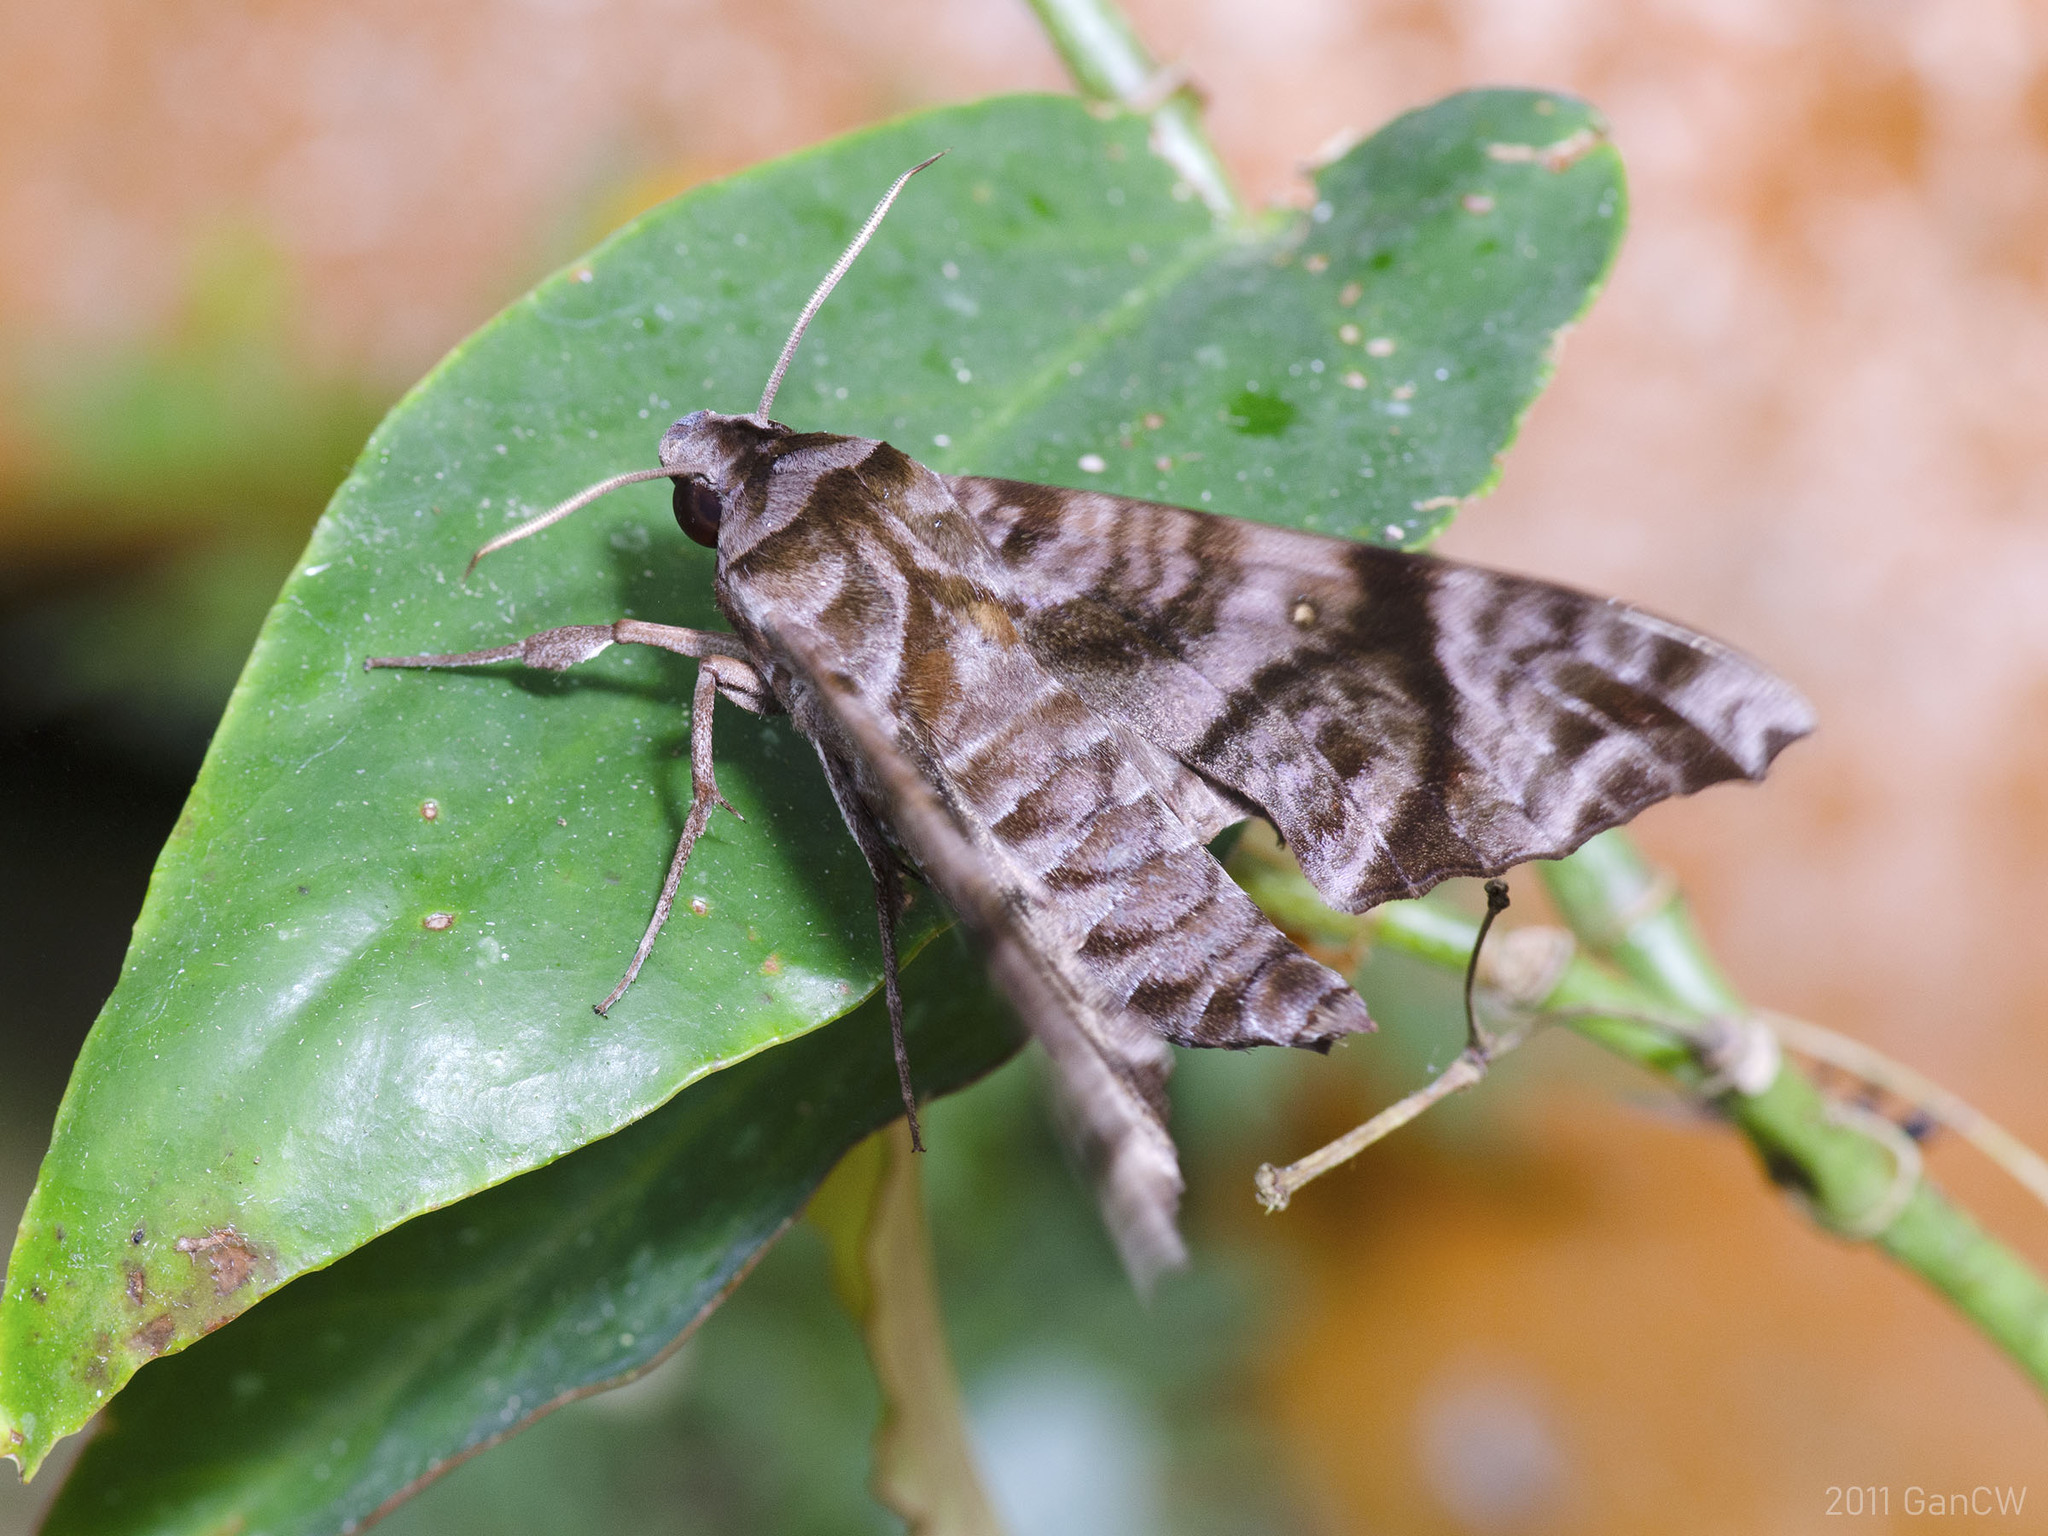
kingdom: Animalia
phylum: Arthropoda
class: Insecta
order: Lepidoptera
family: Sphingidae
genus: Acosmeryx
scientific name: Acosmeryx anceus
